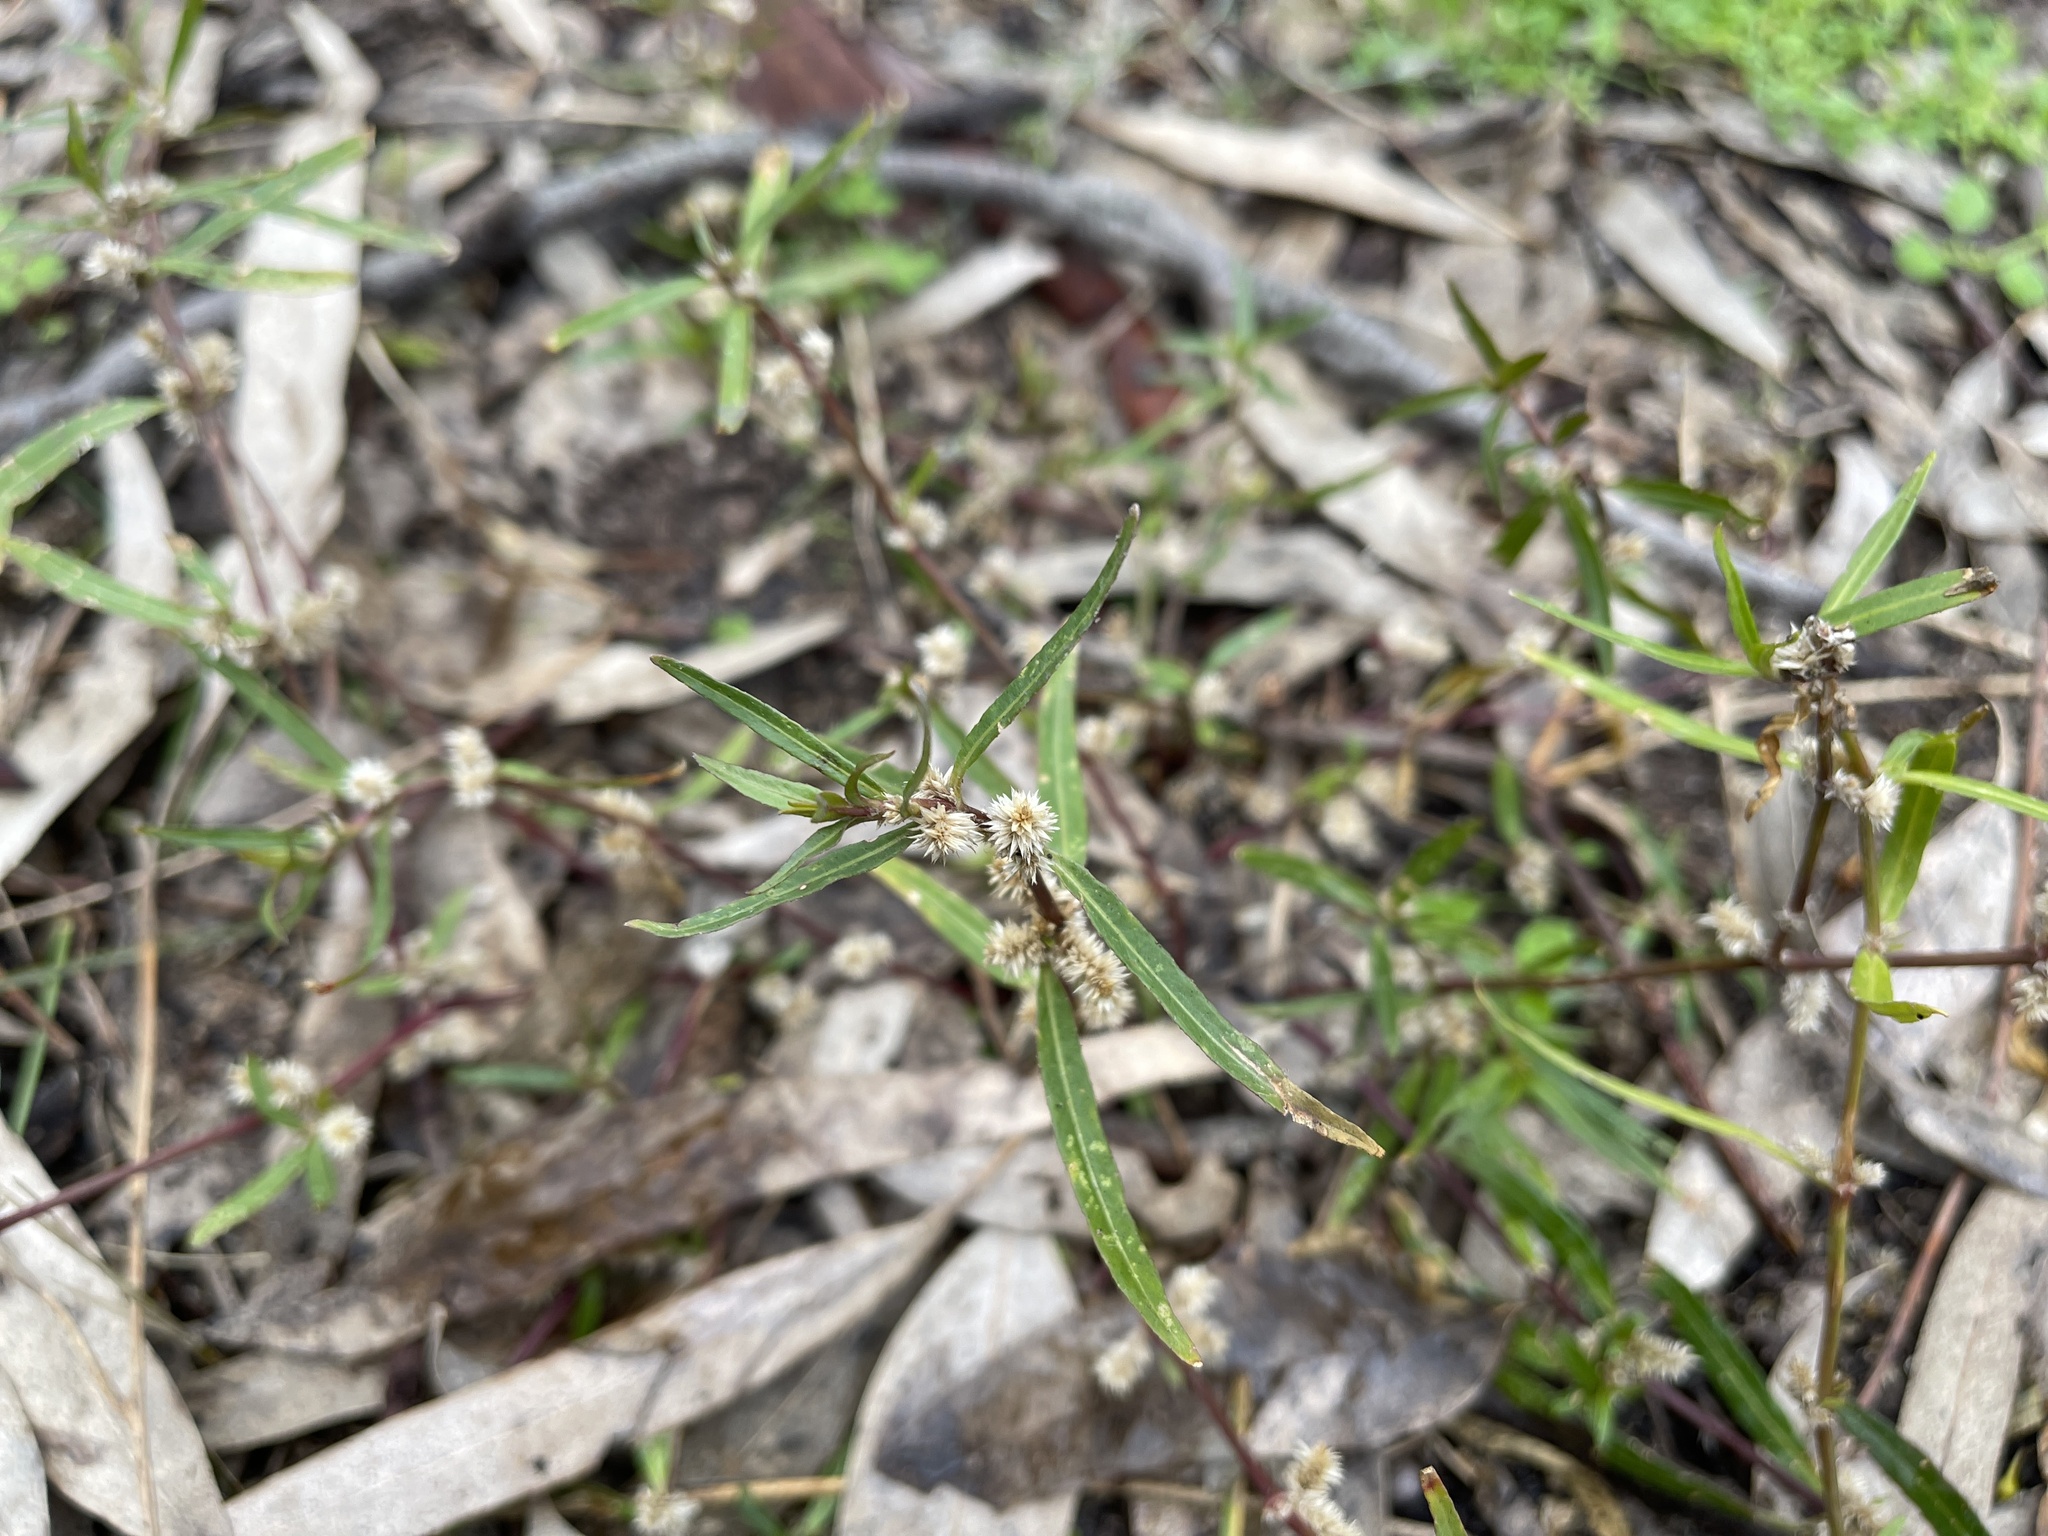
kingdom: Plantae
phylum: Tracheophyta
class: Magnoliopsida
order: Caryophyllales
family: Amaranthaceae
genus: Alternanthera
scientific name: Alternanthera denticulata
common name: Lesser joyweed
